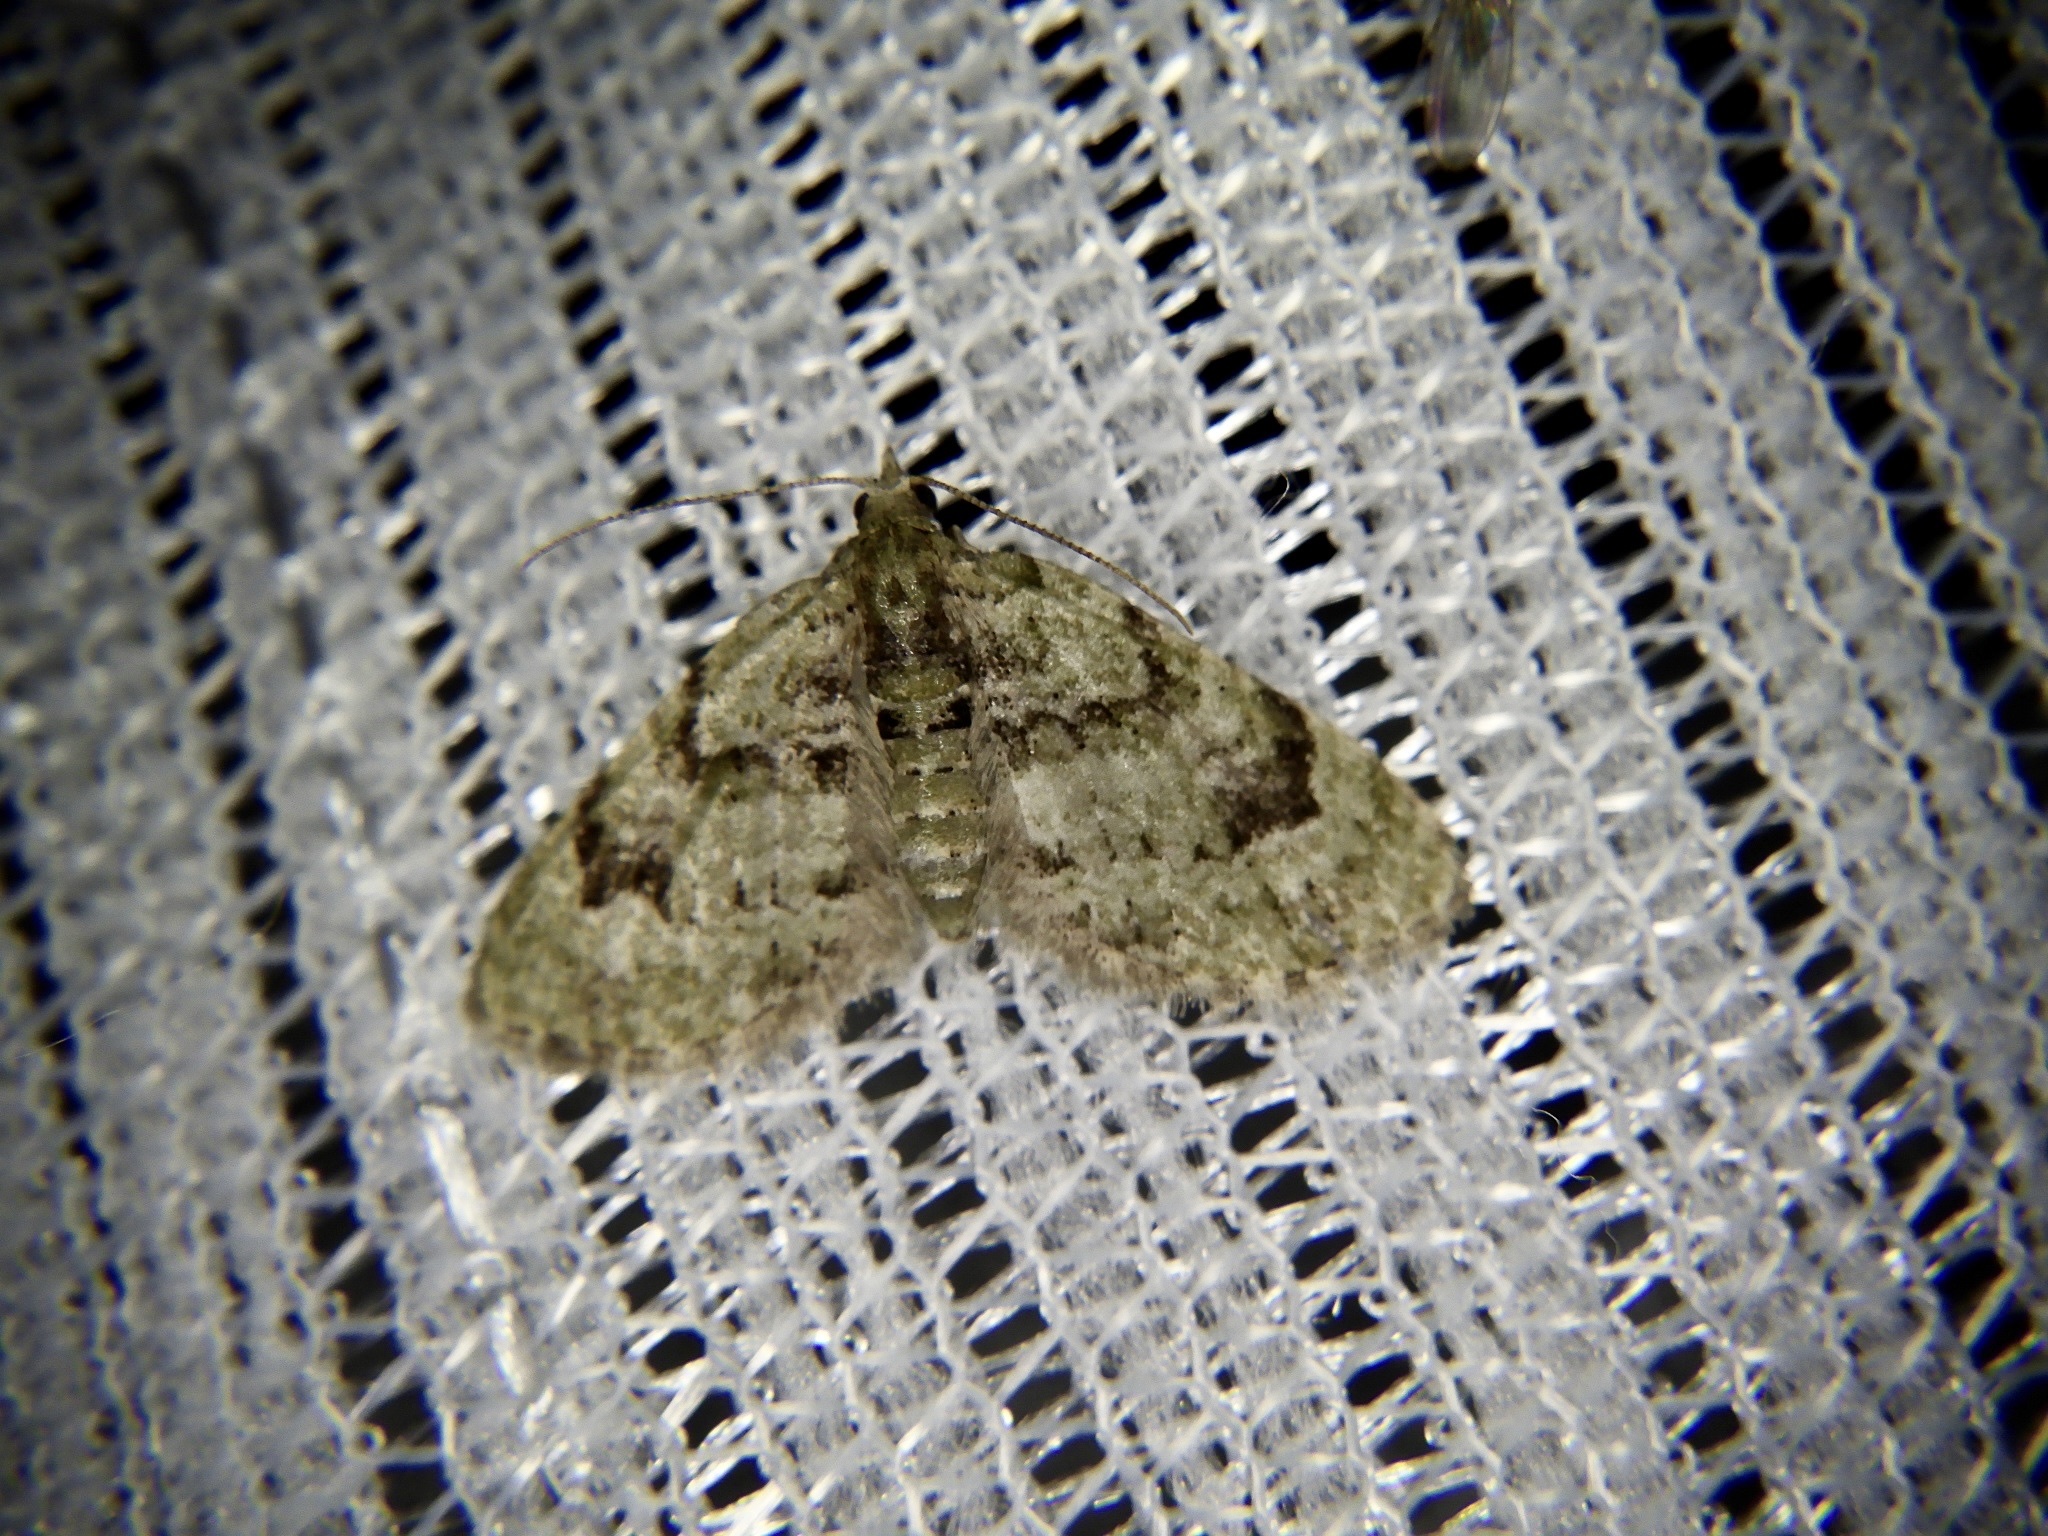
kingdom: Animalia
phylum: Arthropoda
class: Insecta
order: Lepidoptera
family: Geometridae
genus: Chloroclystis
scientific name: Chloroclystis v-ata
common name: V-pug
